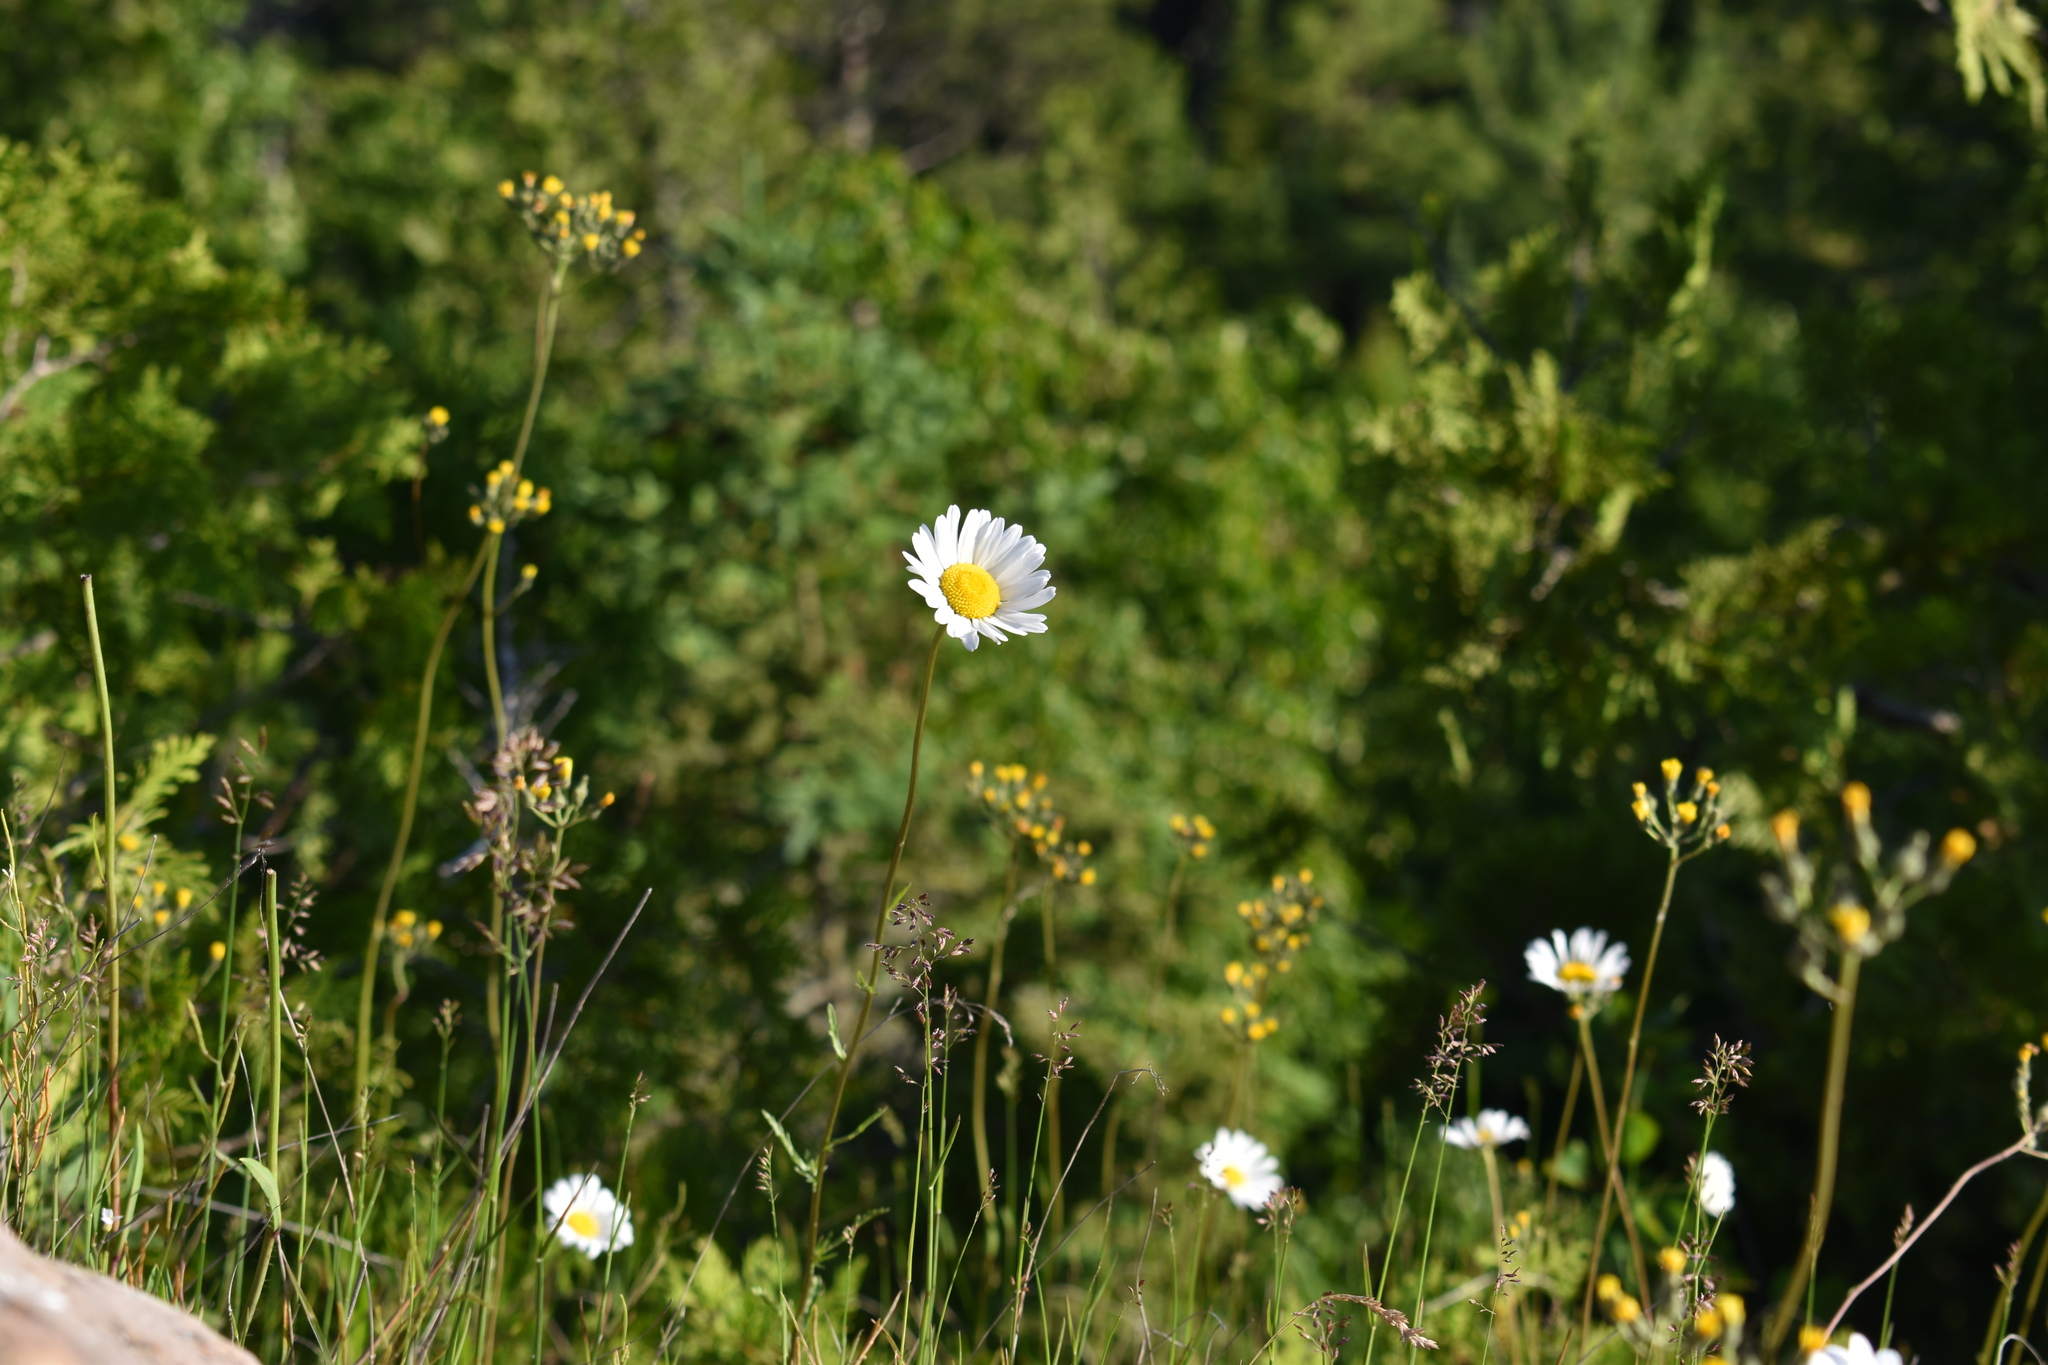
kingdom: Plantae
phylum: Tracheophyta
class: Magnoliopsida
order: Asterales
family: Asteraceae
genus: Leucanthemum
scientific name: Leucanthemum vulgare
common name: Oxeye daisy
